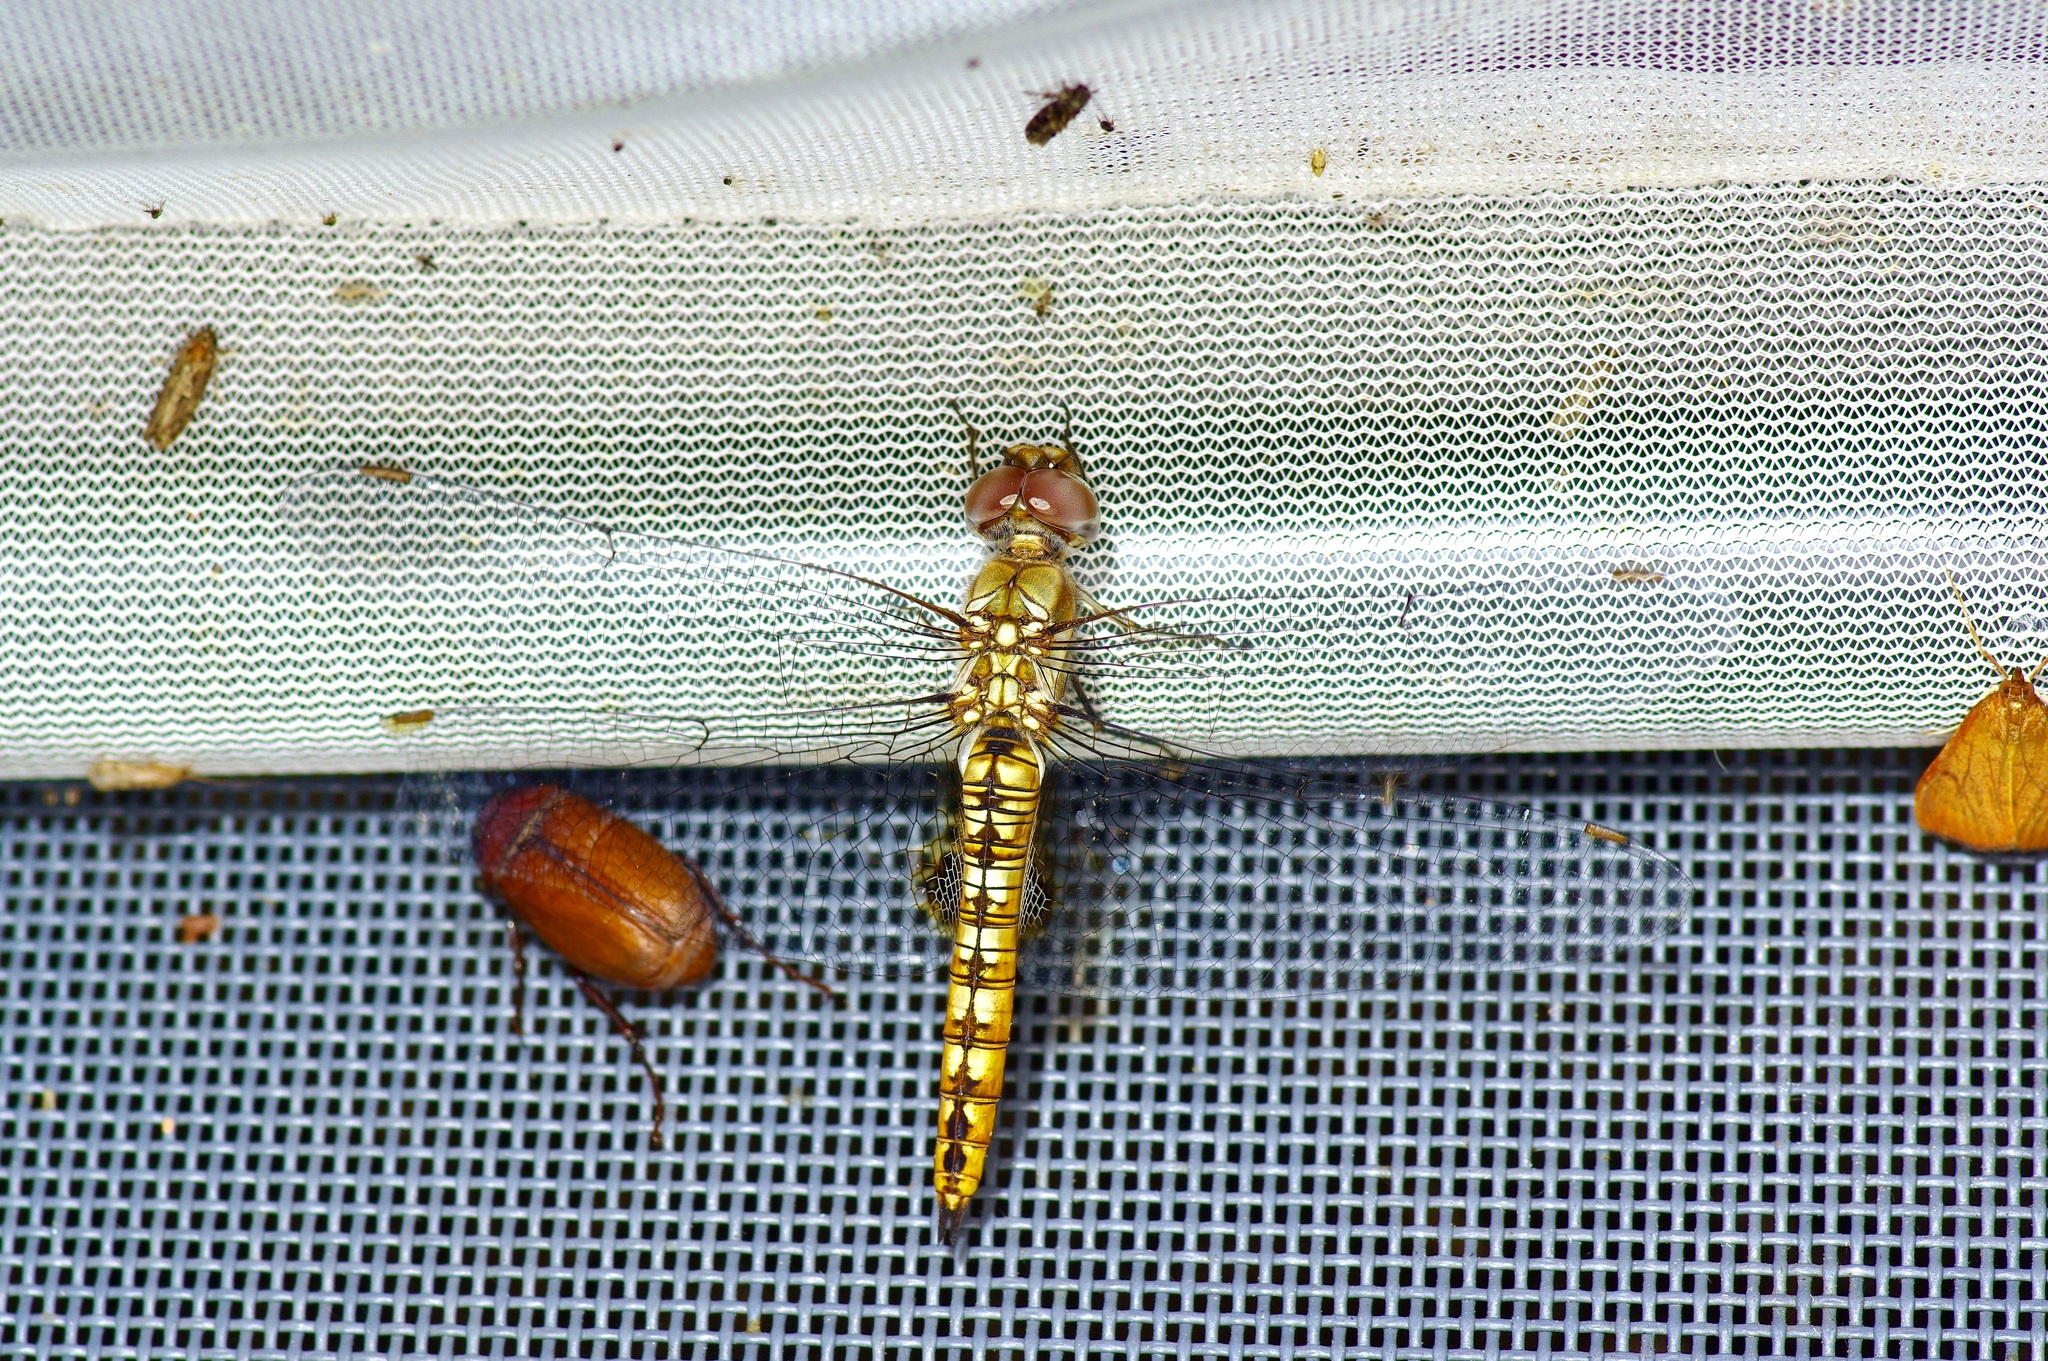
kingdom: Animalia
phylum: Arthropoda
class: Insecta
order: Odonata
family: Libellulidae
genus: Pantala
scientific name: Pantala hymenaea
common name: Spot-winged glider
